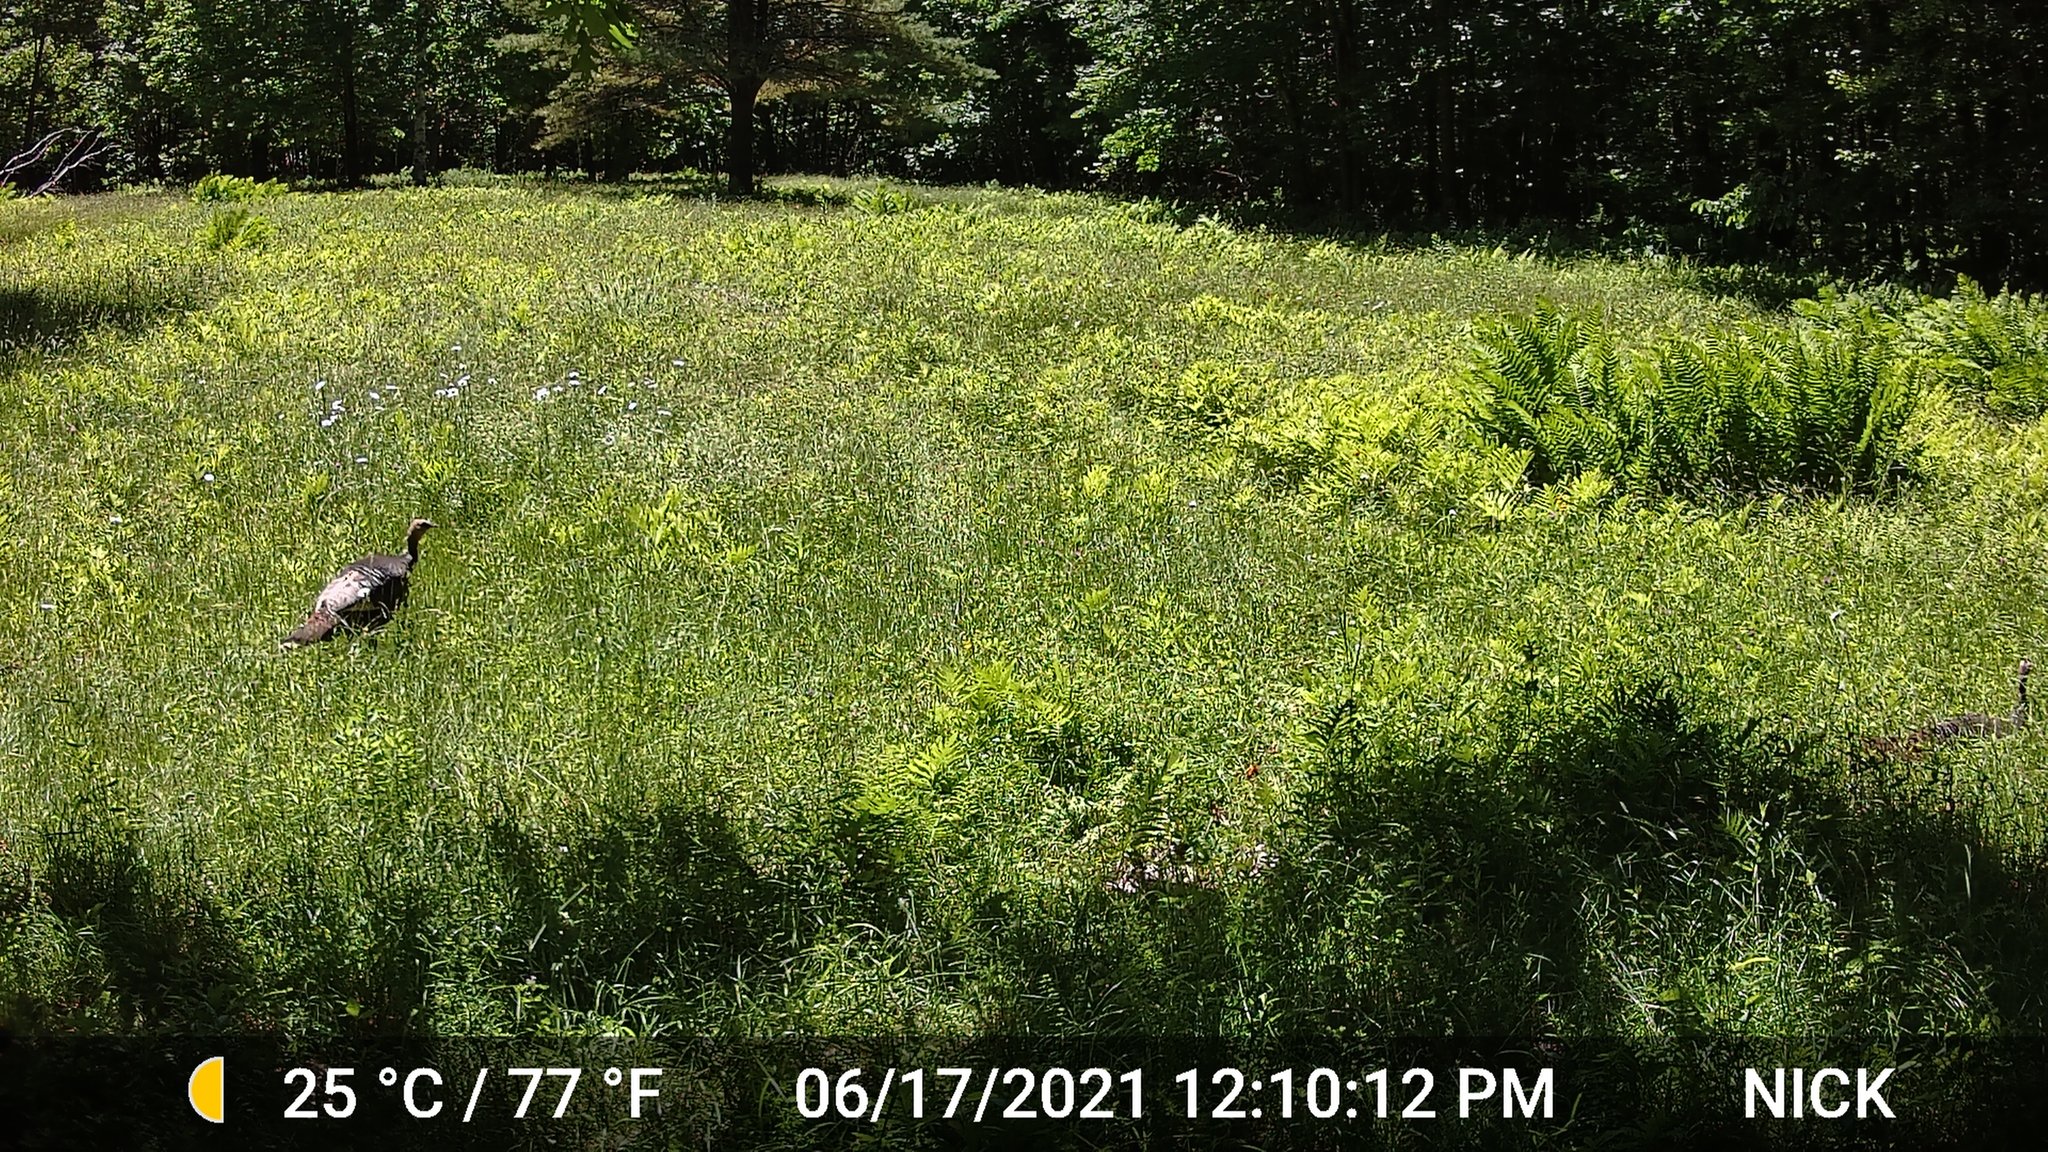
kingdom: Animalia
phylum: Chordata
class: Aves
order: Galliformes
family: Phasianidae
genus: Meleagris
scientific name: Meleagris gallopavo
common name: Wild turkey
